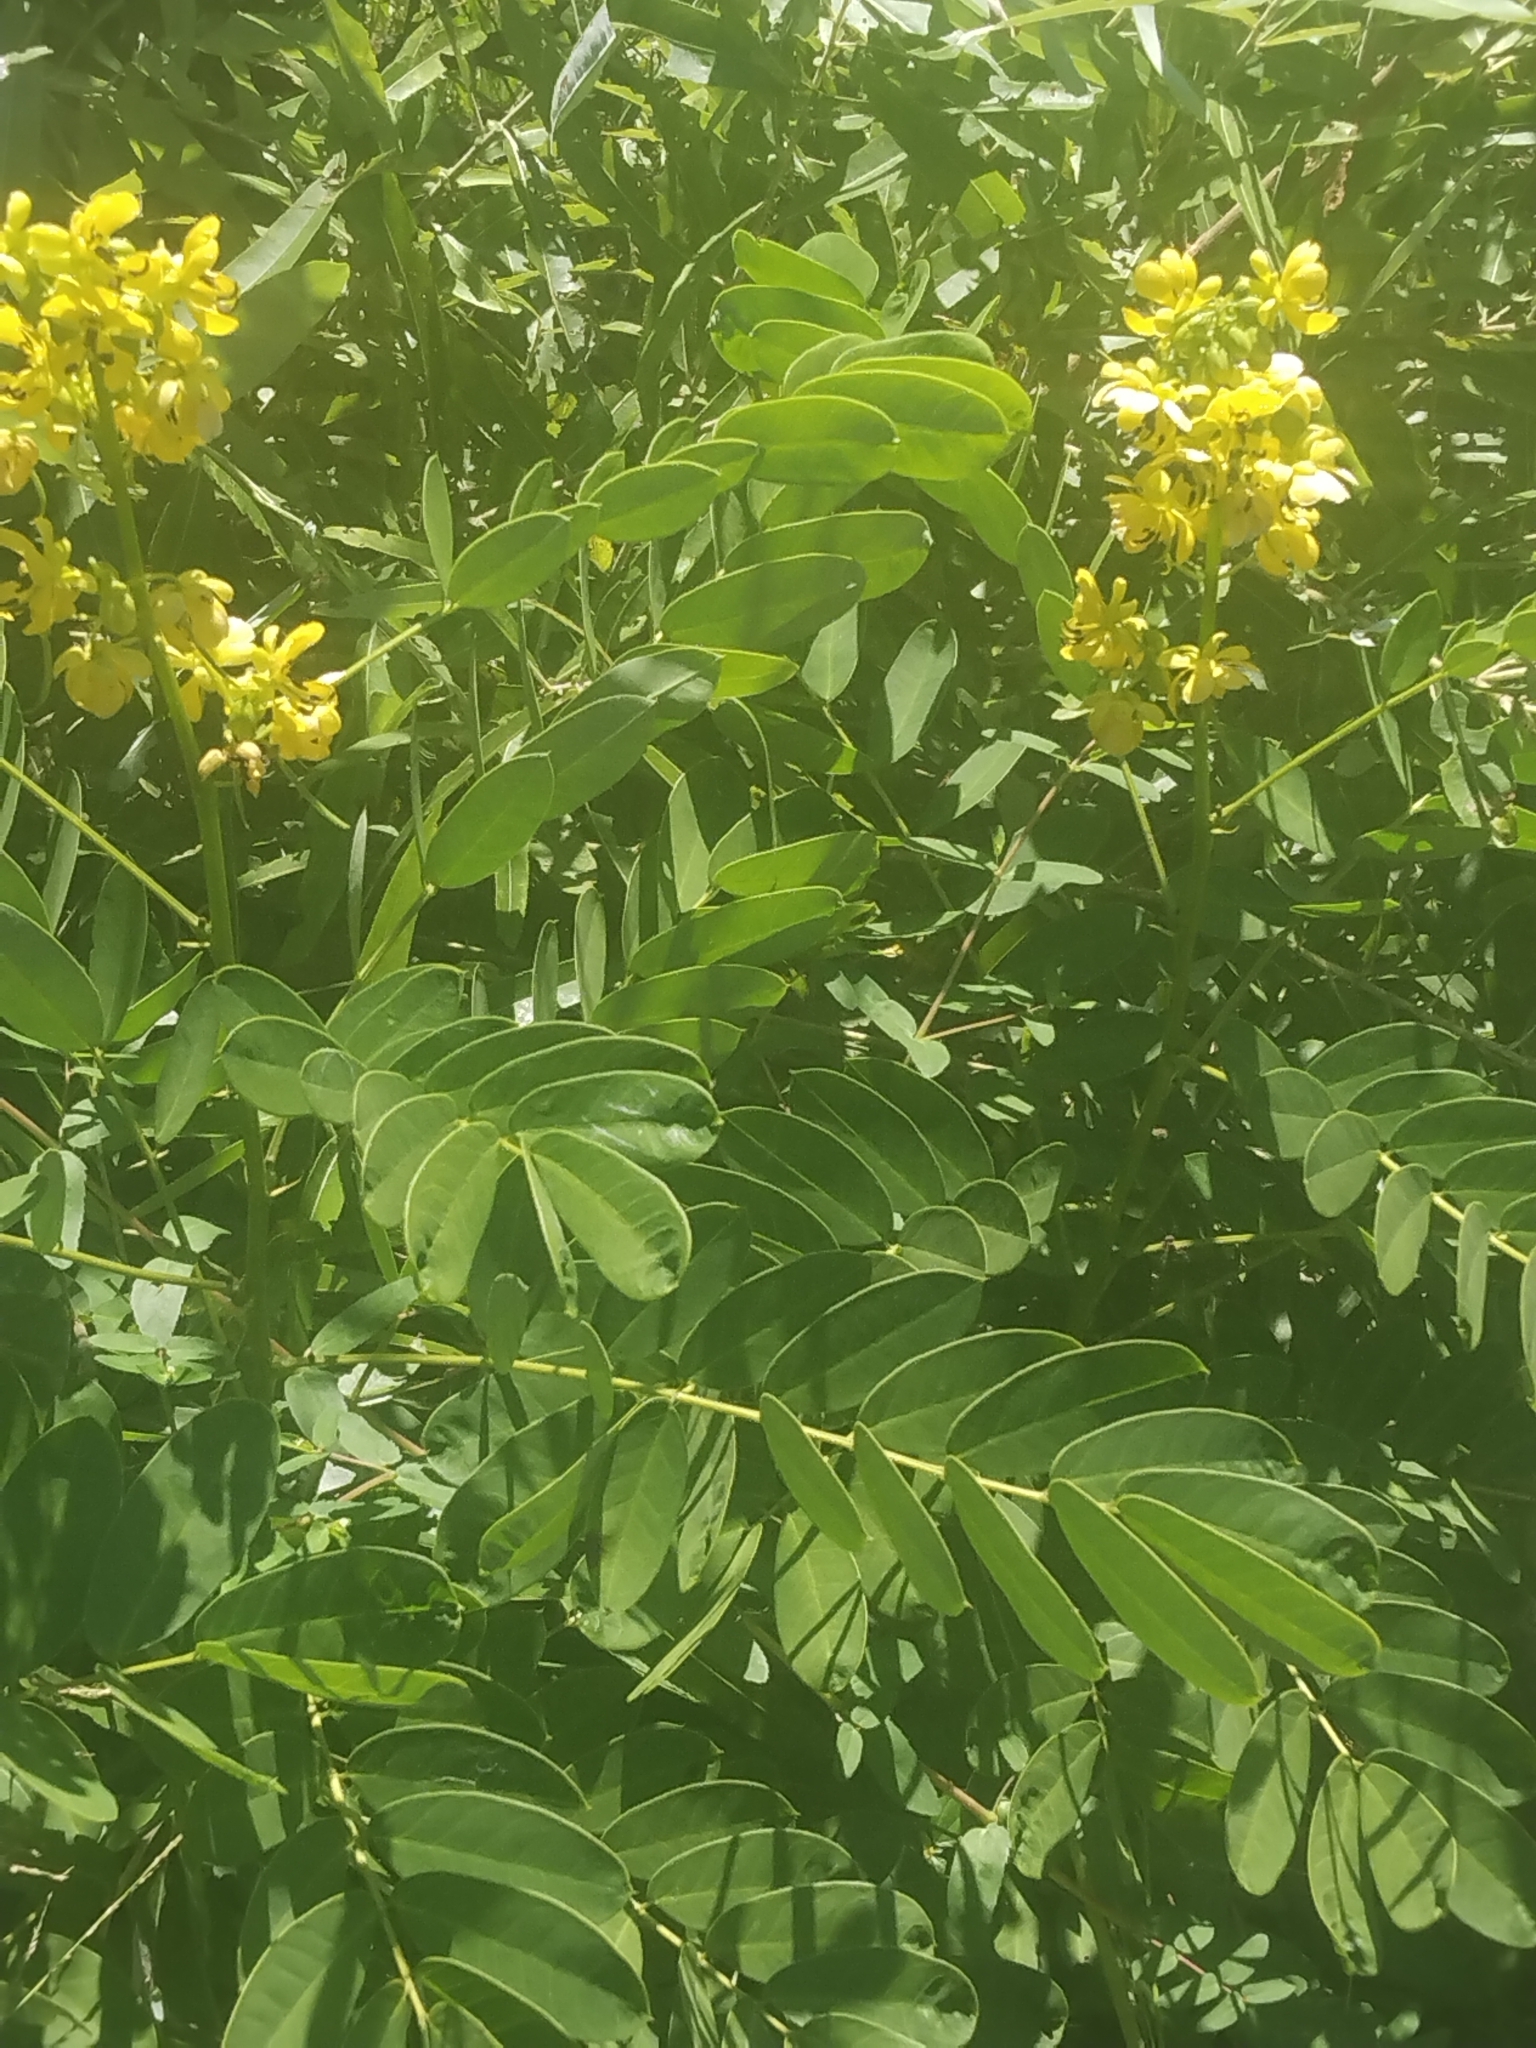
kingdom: Plantae
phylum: Tracheophyta
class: Magnoliopsida
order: Fabales
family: Fabaceae
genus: Senna
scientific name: Senna marilandica
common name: American senna
